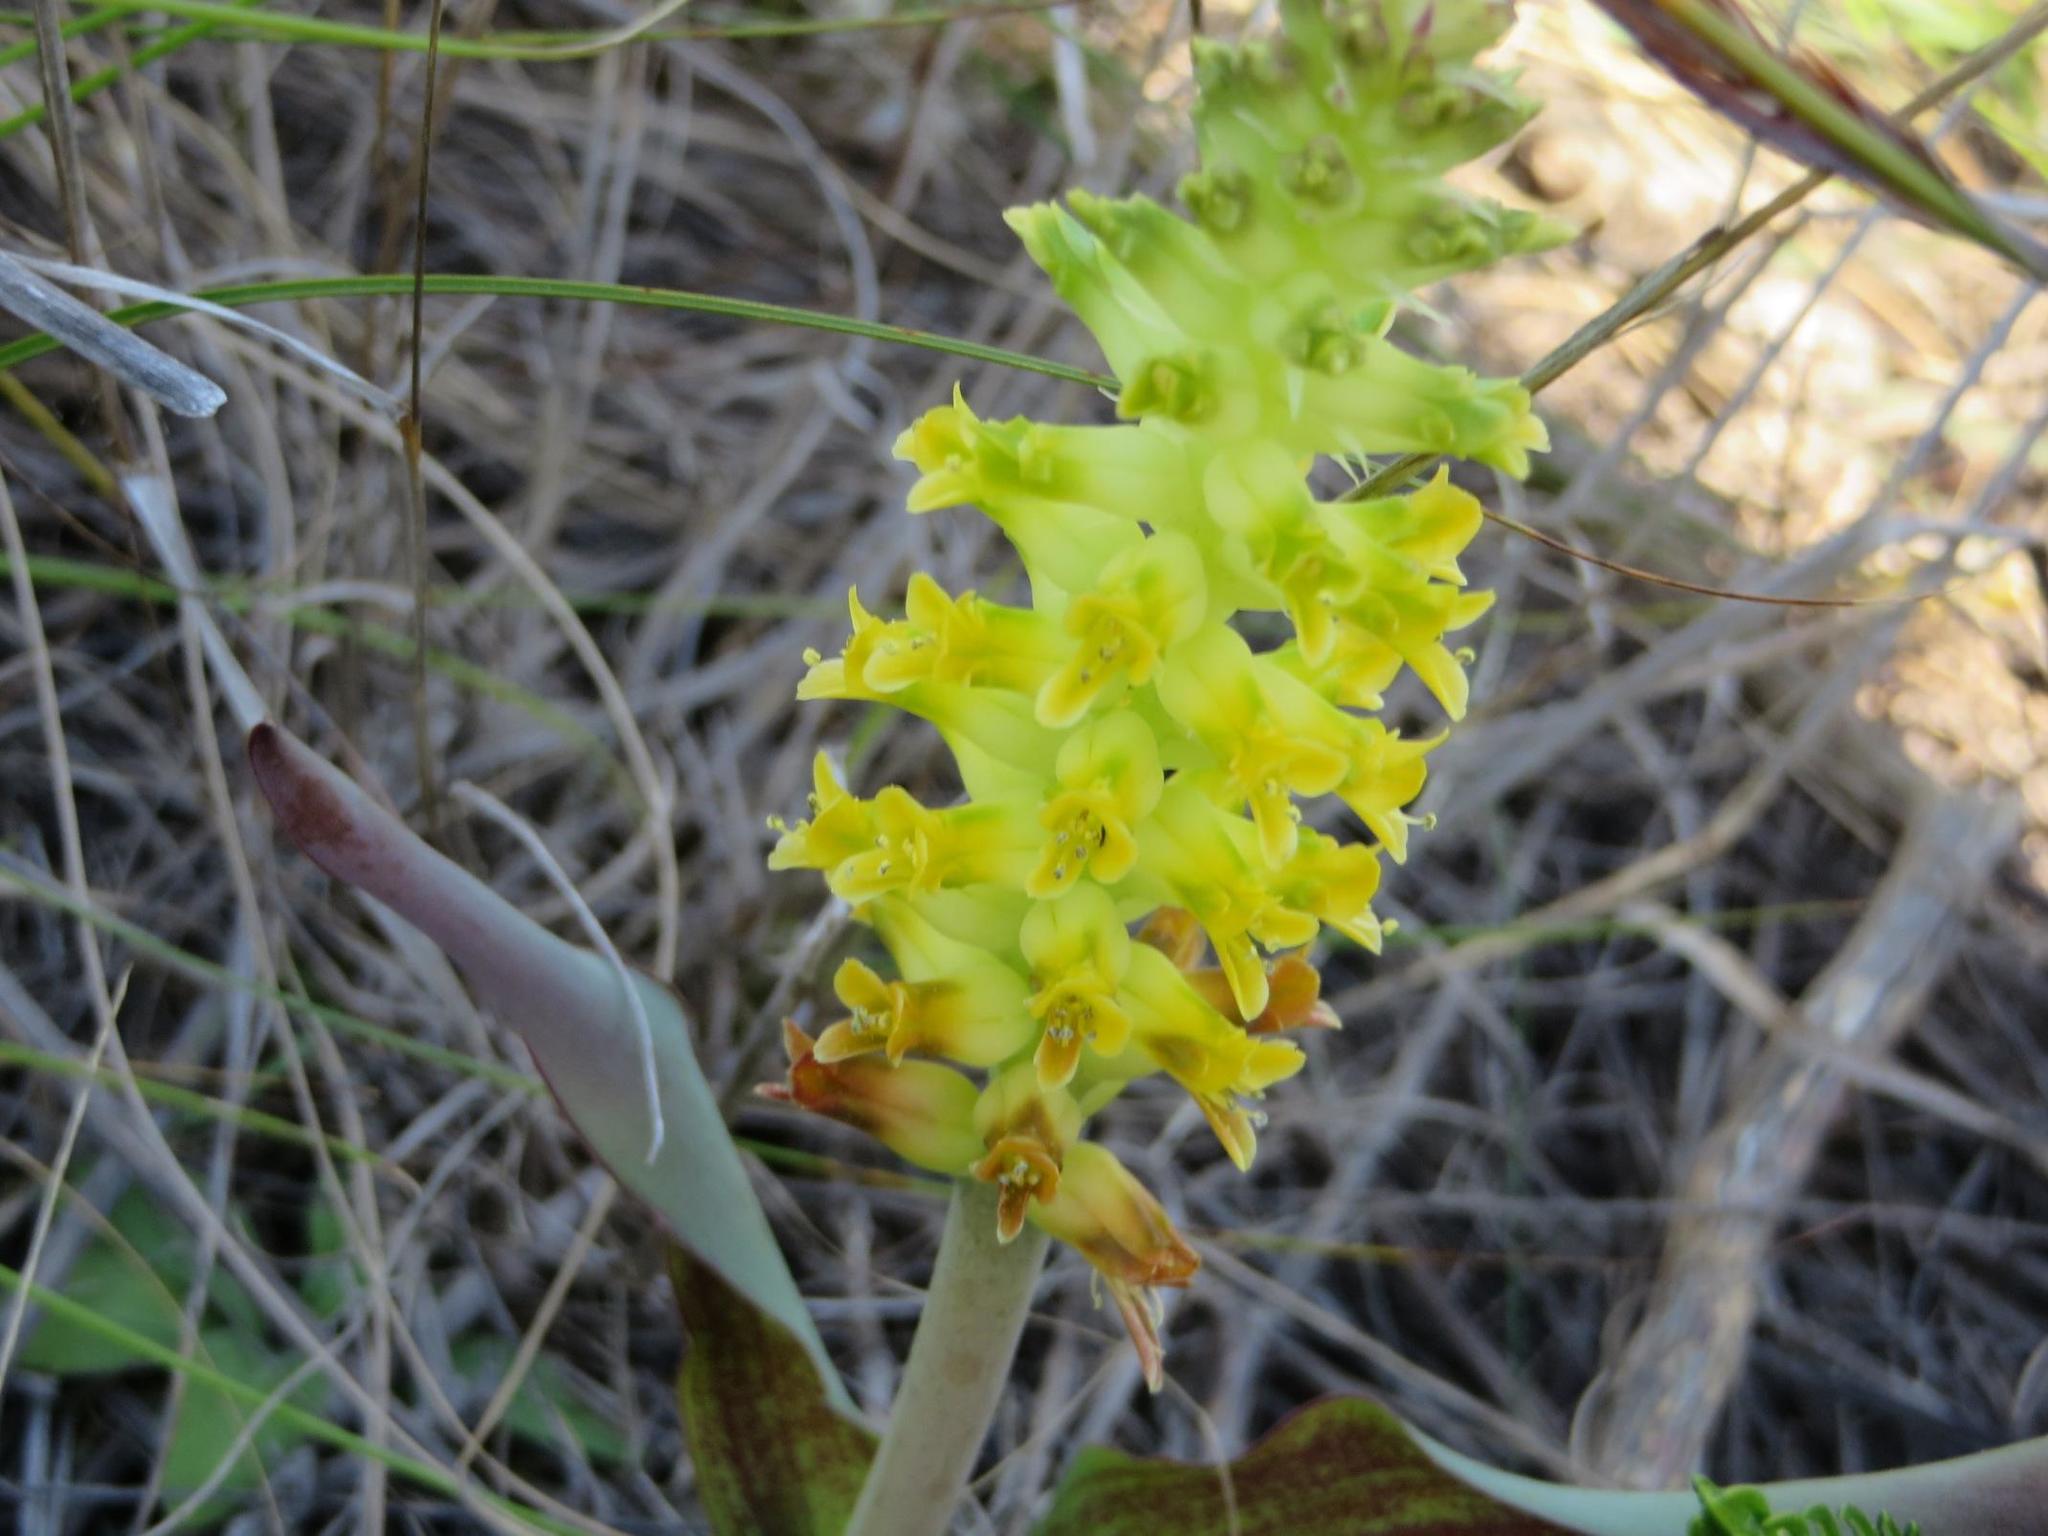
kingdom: Plantae
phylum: Tracheophyta
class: Liliopsida
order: Asparagales
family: Asparagaceae
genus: Lachenalia
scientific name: Lachenalia orchioides
